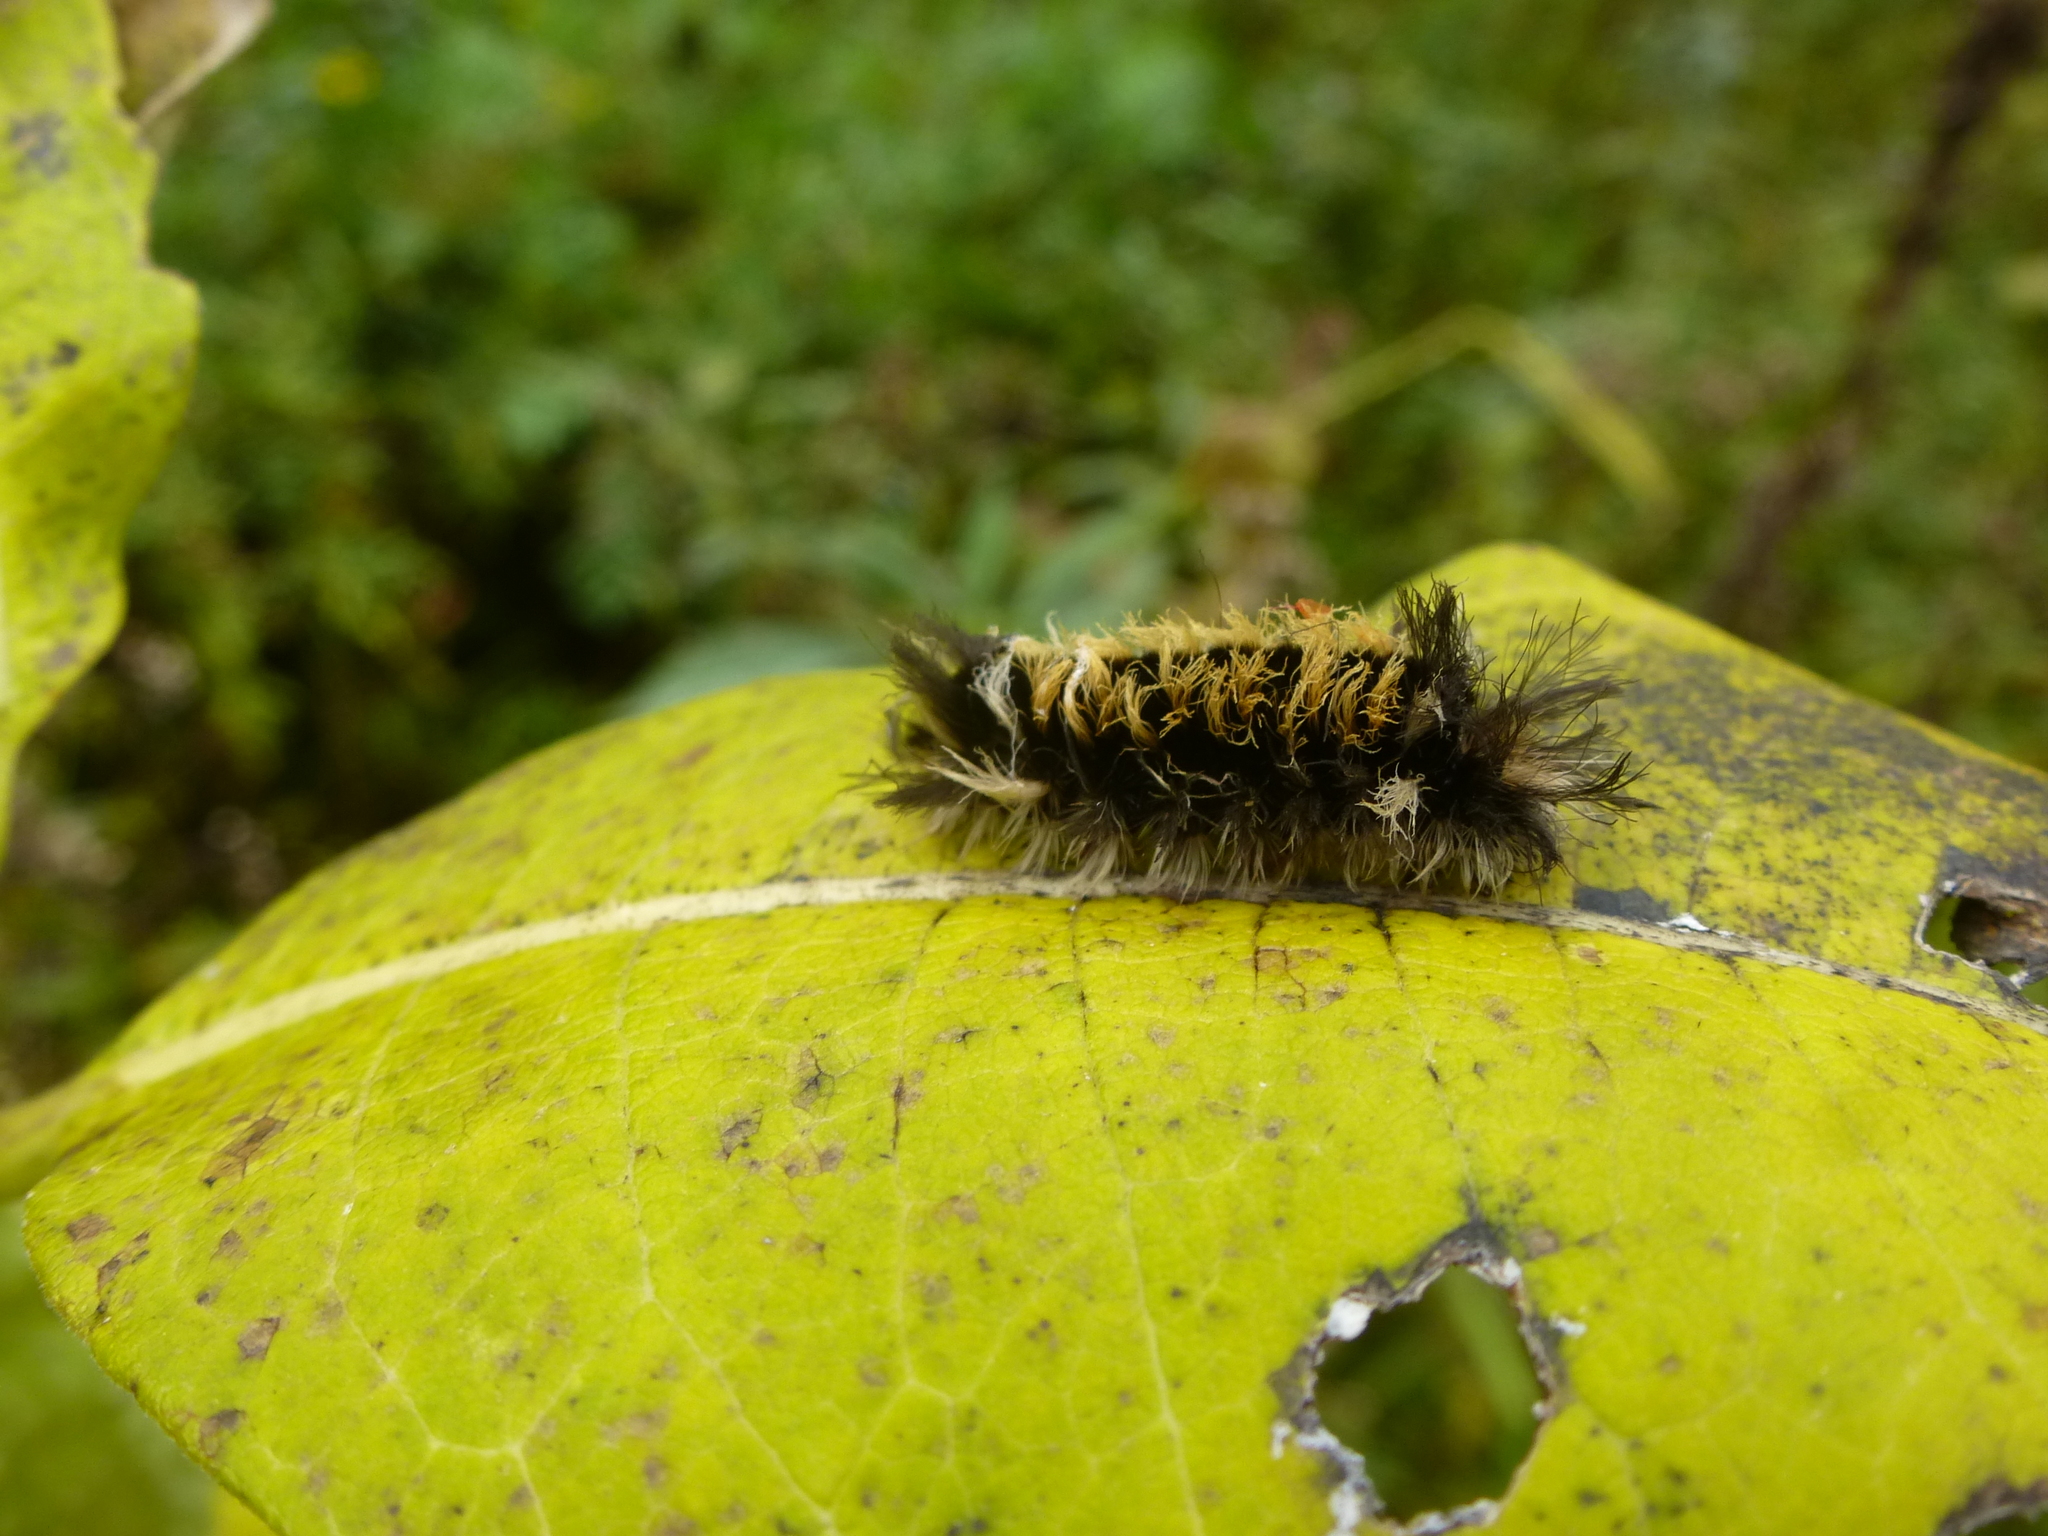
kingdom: Animalia
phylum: Arthropoda
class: Insecta
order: Lepidoptera
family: Erebidae
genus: Euchaetes
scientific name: Euchaetes egle
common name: Milkweed tussock moth
